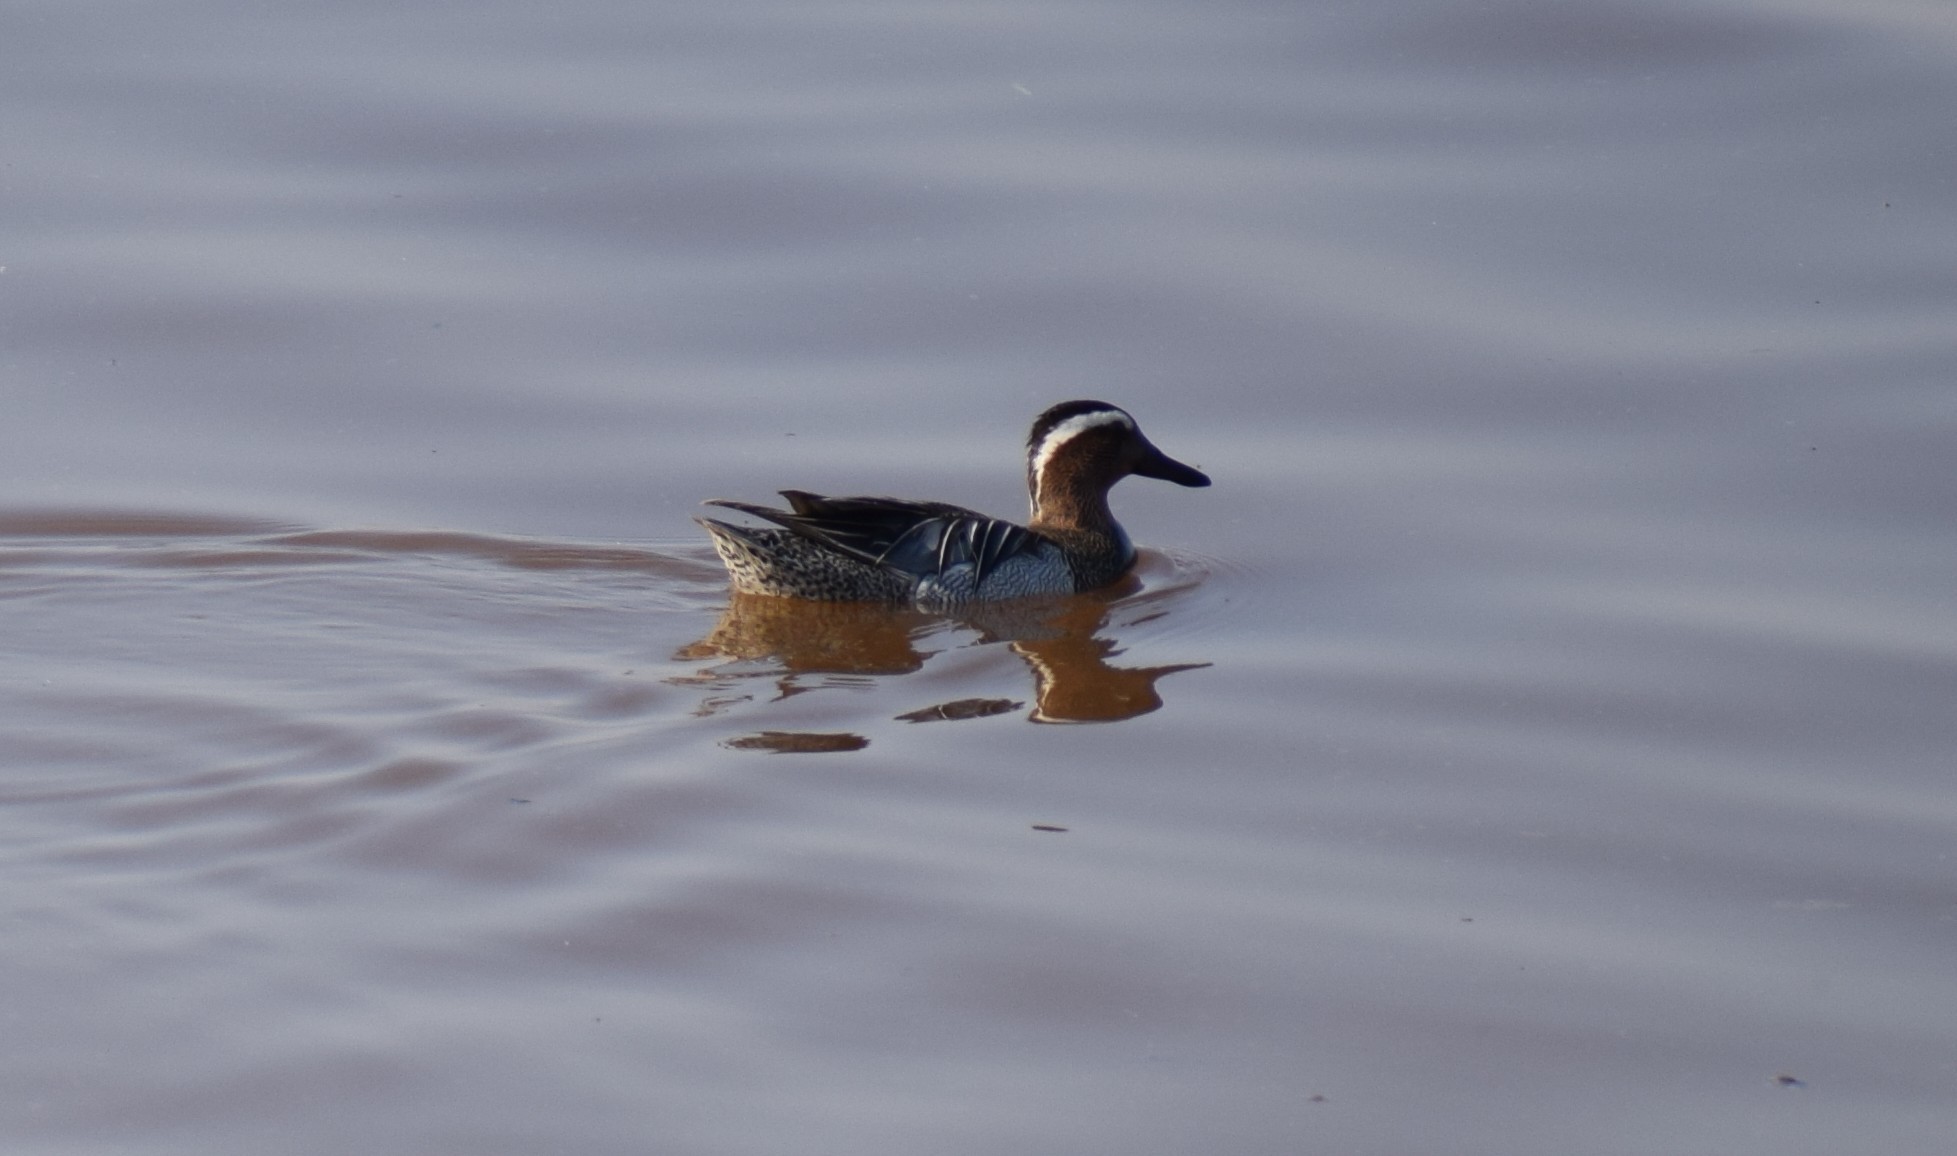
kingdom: Animalia
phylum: Chordata
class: Aves
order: Anseriformes
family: Anatidae
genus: Spatula
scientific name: Spatula querquedula
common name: Garganey
